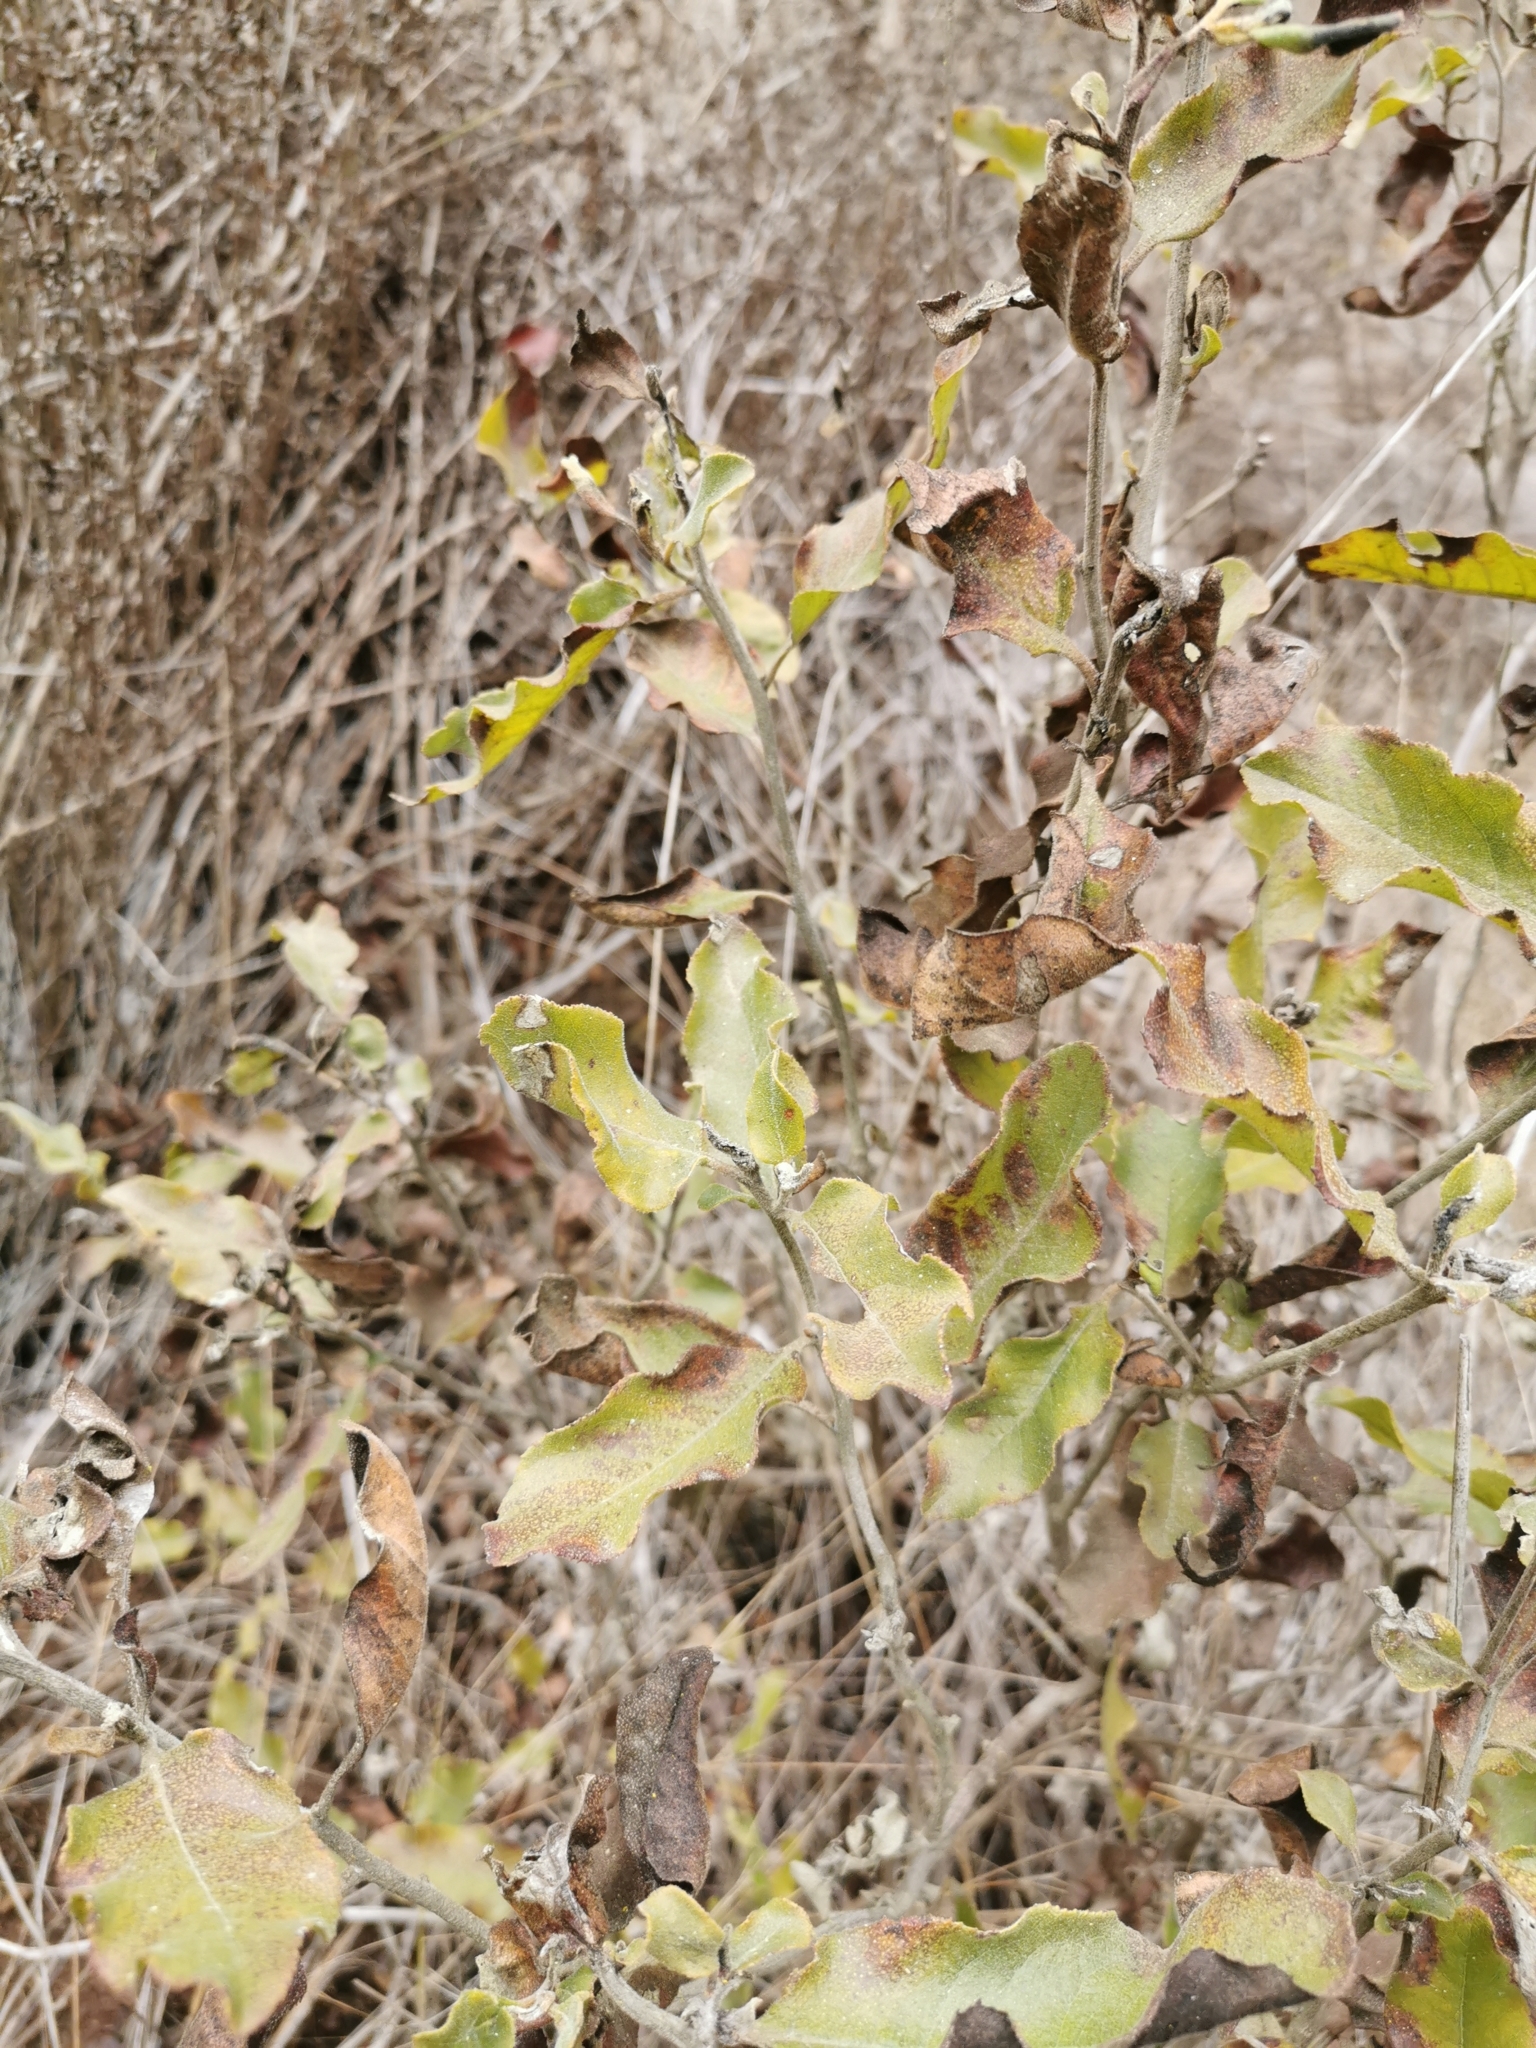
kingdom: Plantae
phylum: Tracheophyta
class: Magnoliopsida
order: Escalloniales
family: Escalloniaceae
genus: Escallonia
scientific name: Escallonia pulverulenta
